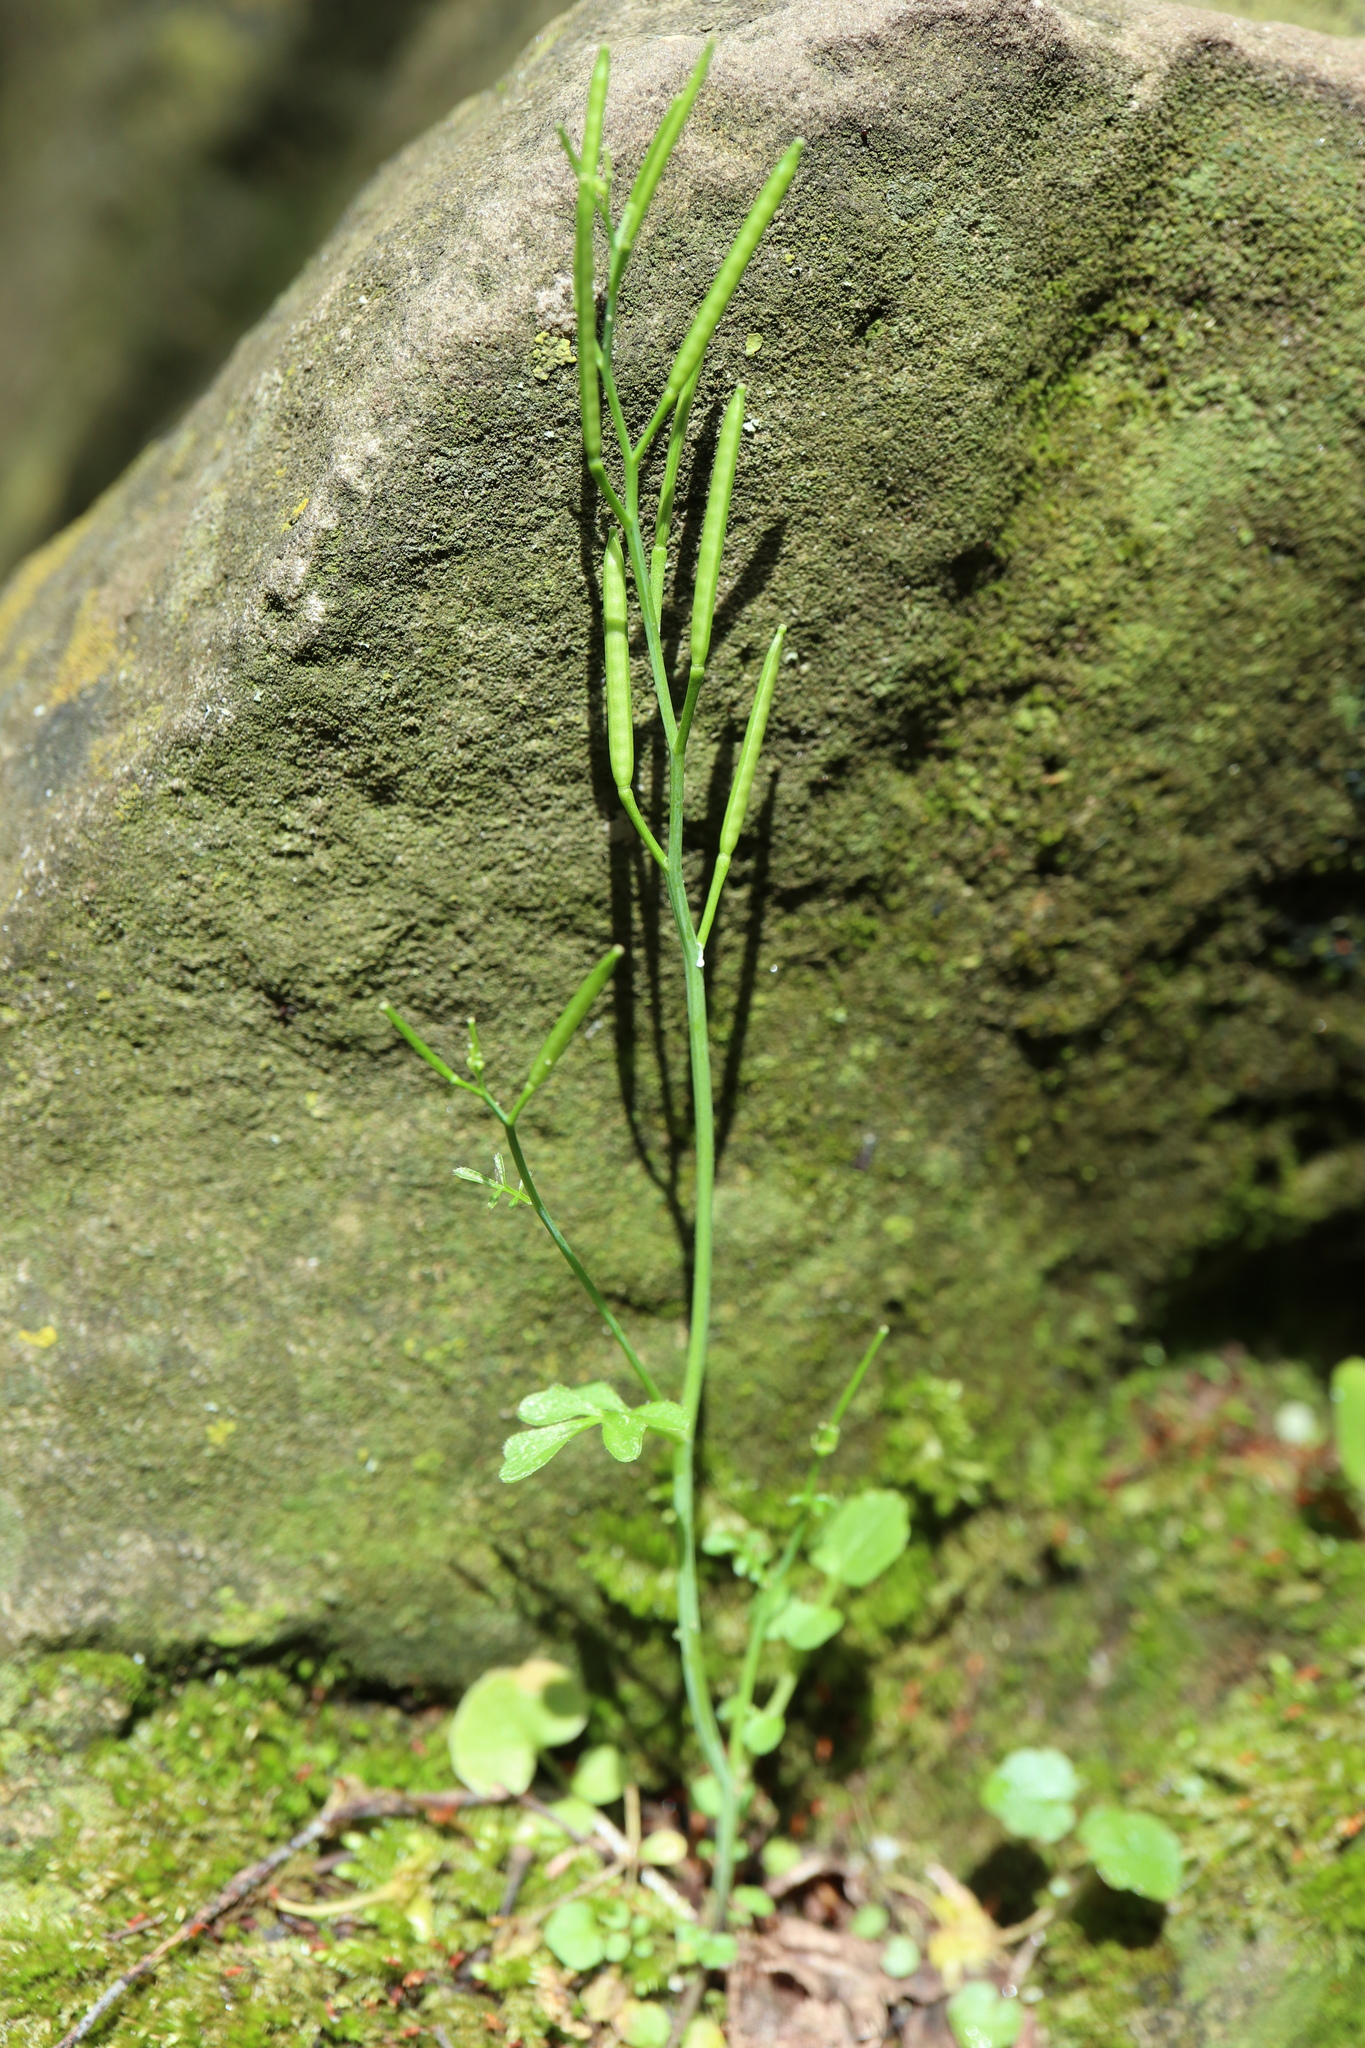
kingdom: Plantae
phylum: Tracheophyta
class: Magnoliopsida
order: Brassicales
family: Brassicaceae
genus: Cardamine
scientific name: Cardamine hirsuta
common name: Hairy bittercress
